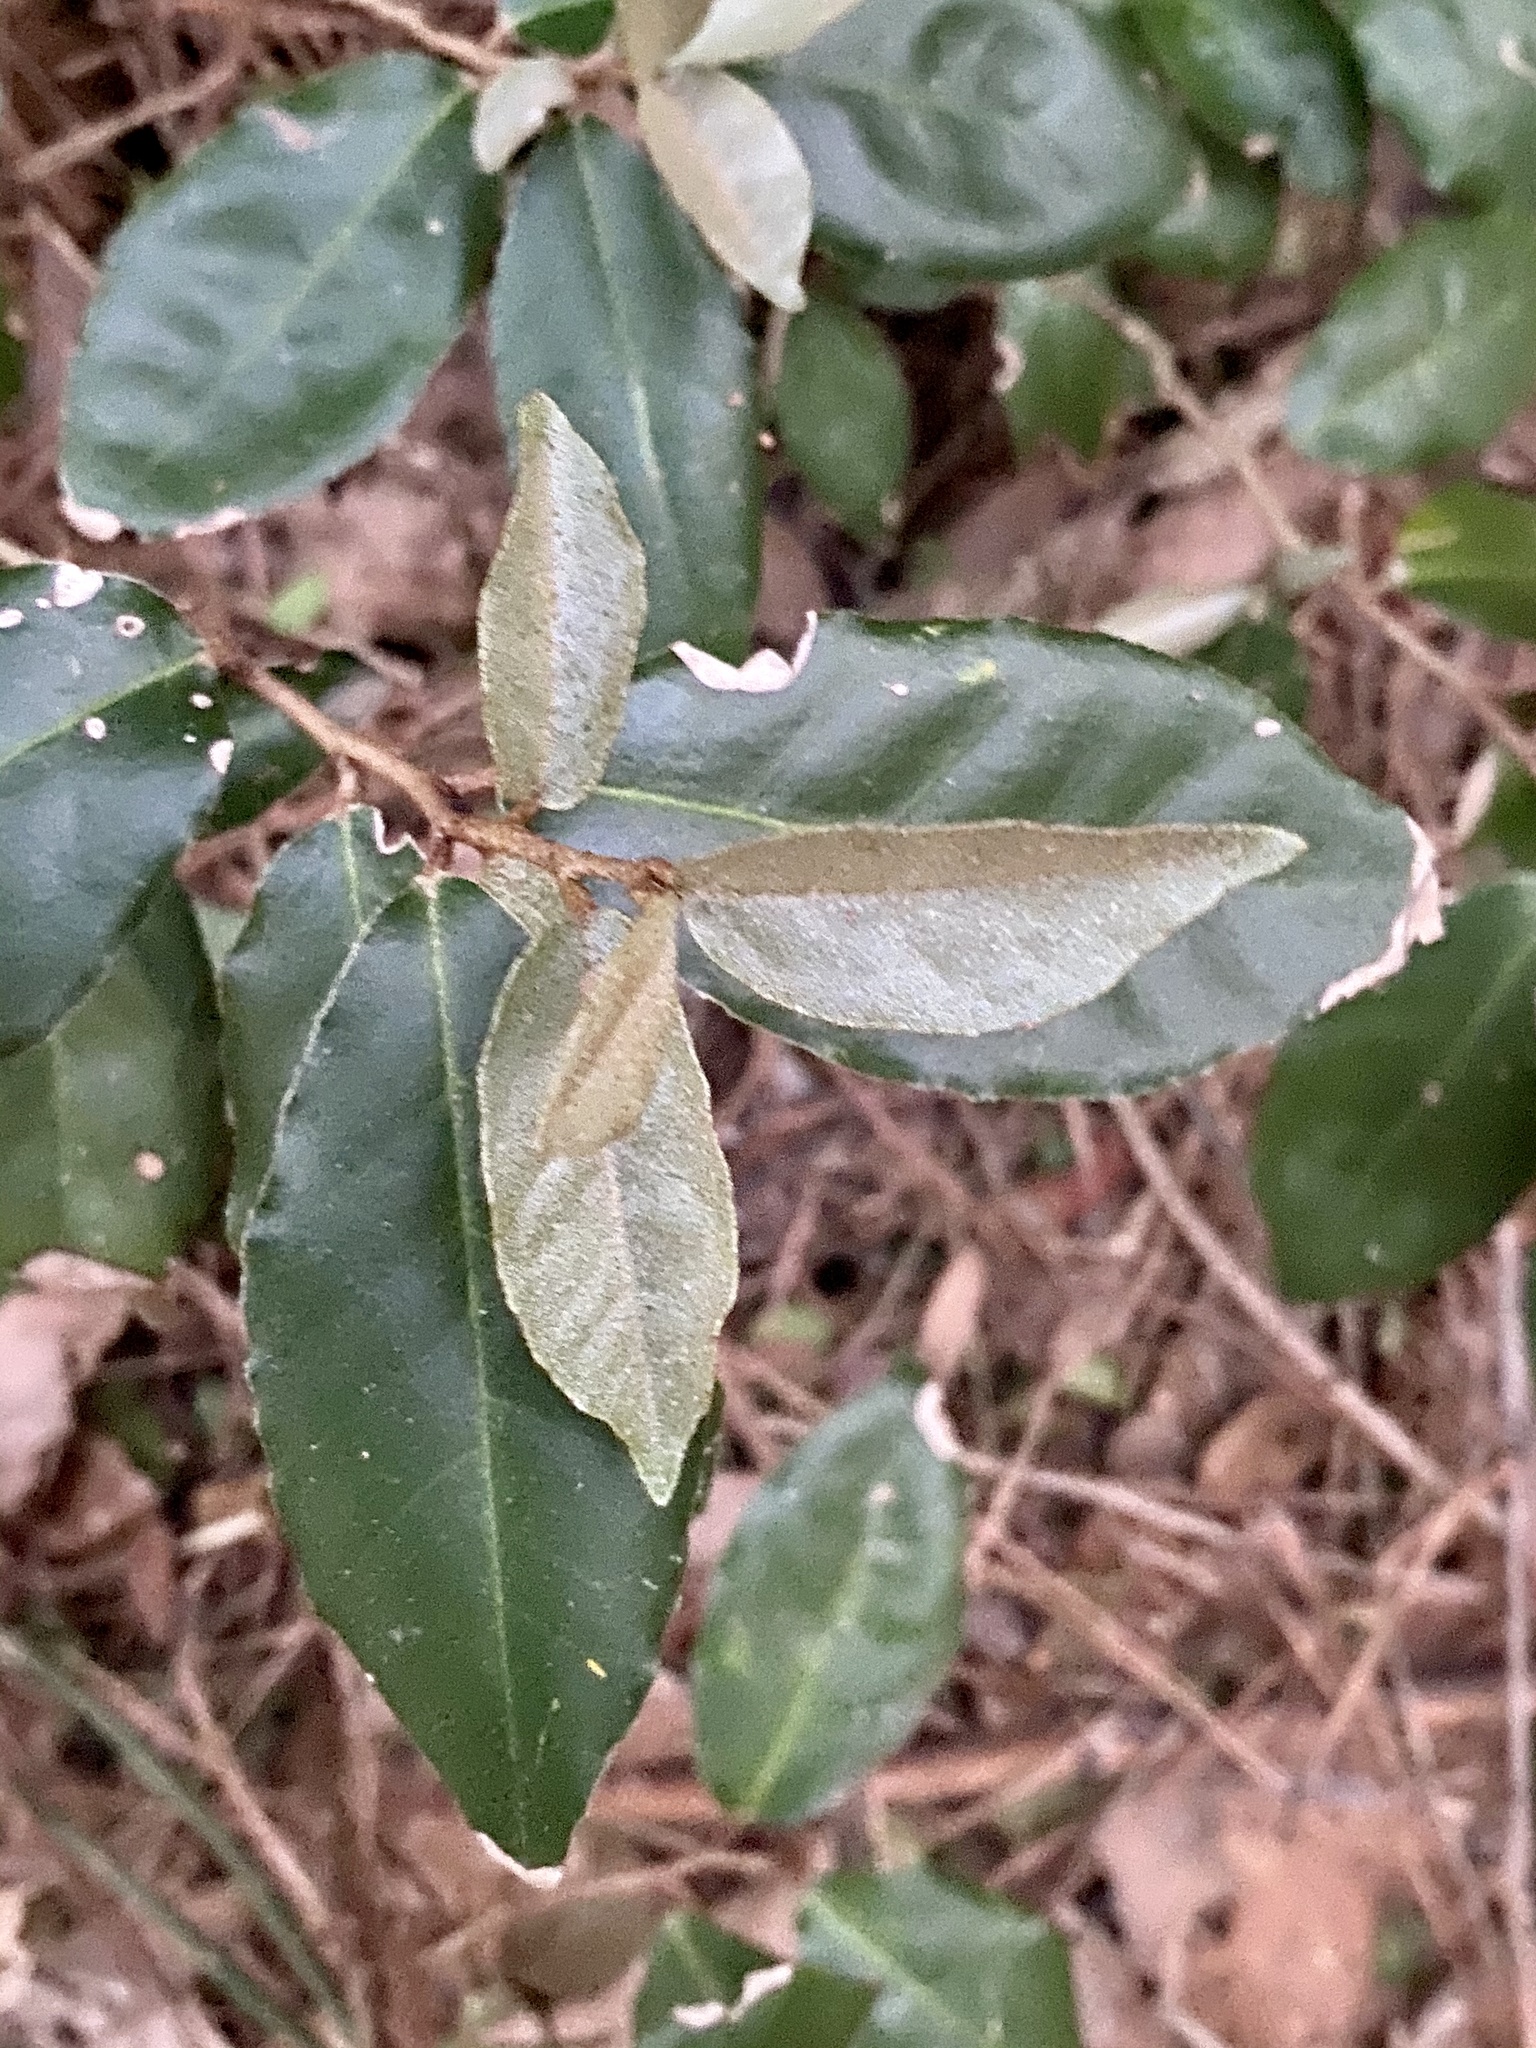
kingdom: Plantae
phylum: Tracheophyta
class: Magnoliopsida
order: Rosales
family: Elaeagnaceae
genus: Elaeagnus
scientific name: Elaeagnus pungens
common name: Spiny oleaster
